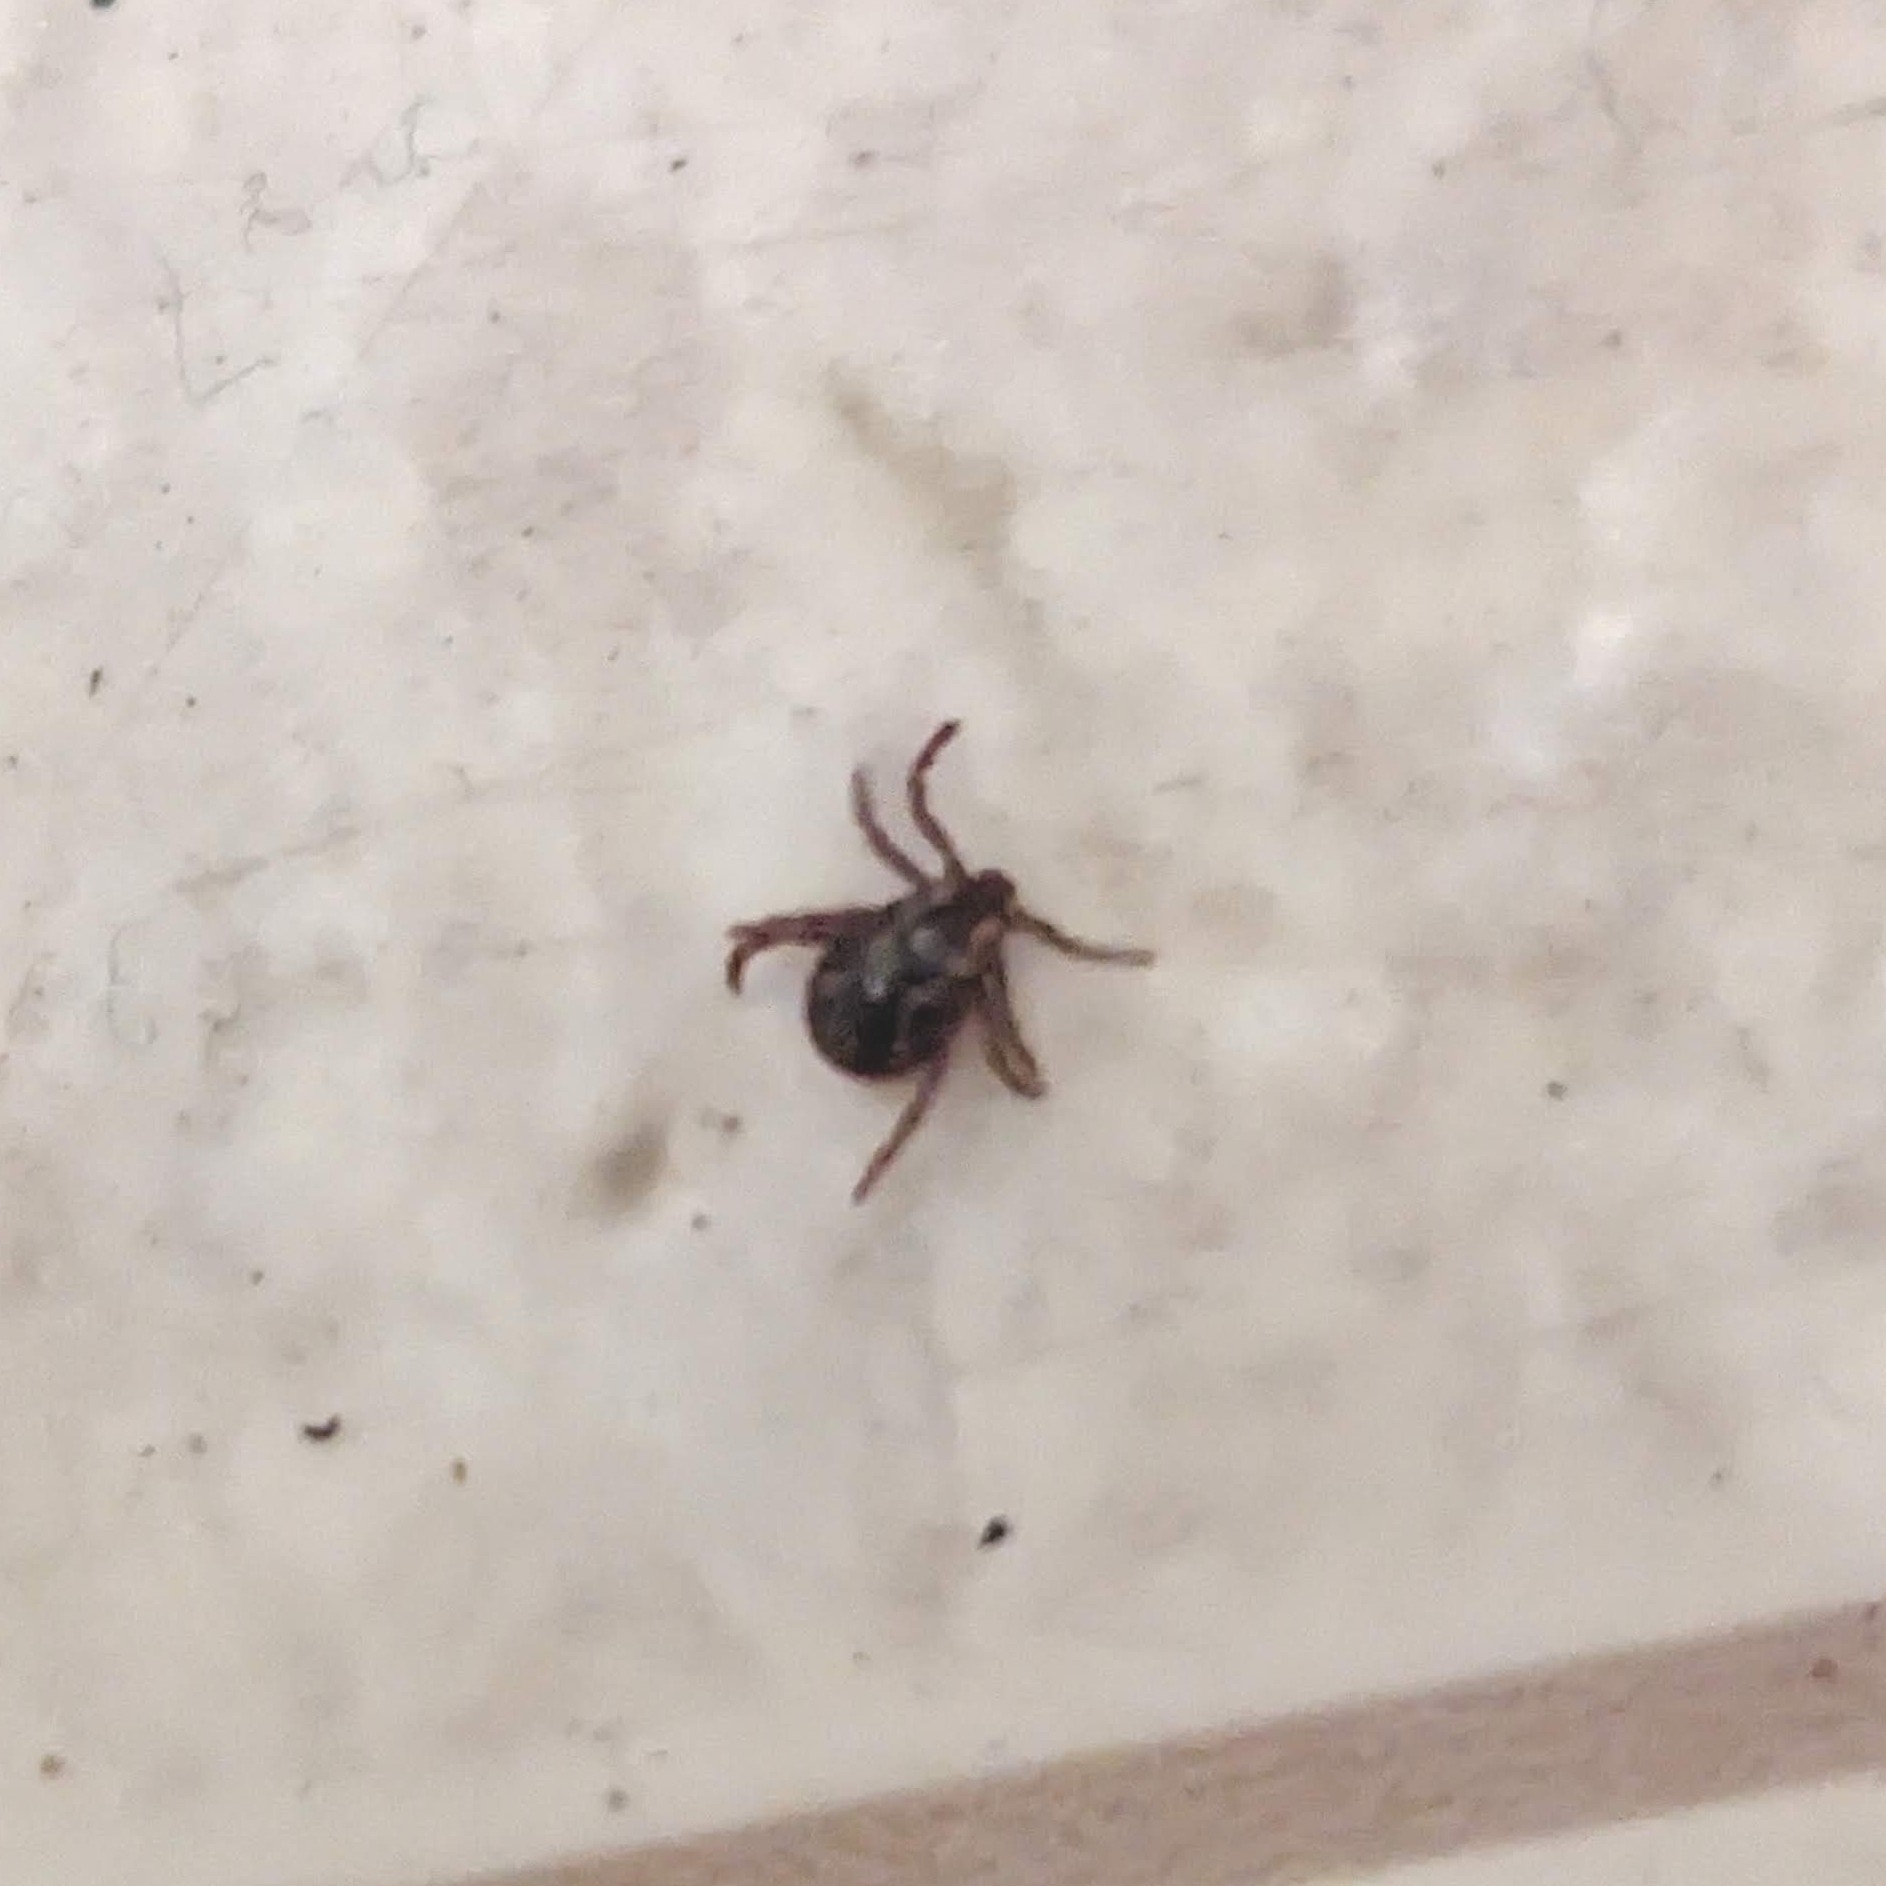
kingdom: Animalia
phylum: Arthropoda
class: Arachnida
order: Ixodida
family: Ixodidae
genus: Dermacentor
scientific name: Dermacentor variabilis
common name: American dog tick
